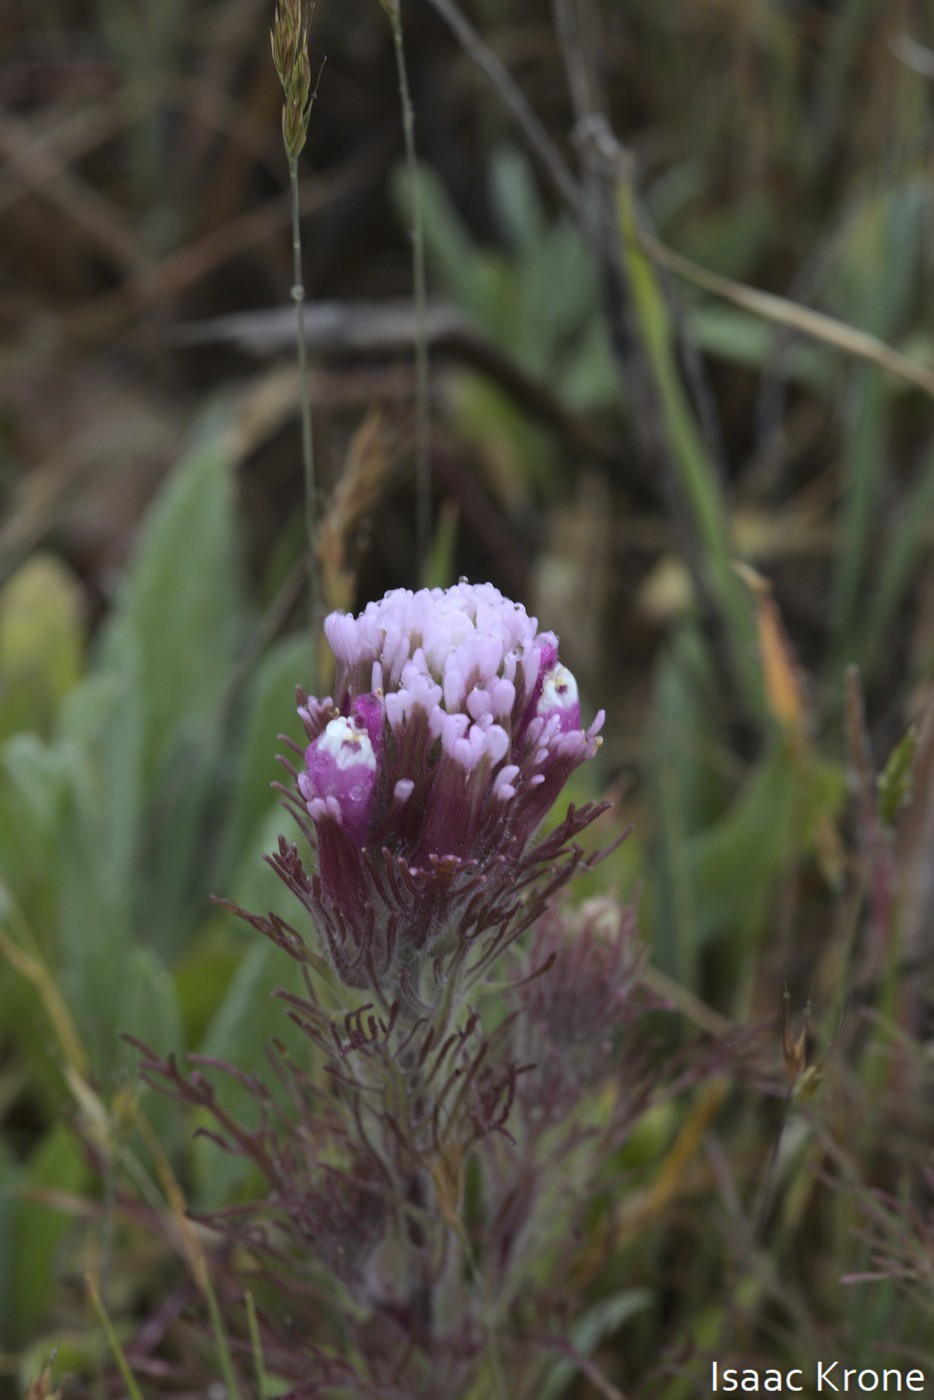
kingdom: Plantae
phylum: Tracheophyta
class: Magnoliopsida
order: Lamiales
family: Orobanchaceae
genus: Castilleja
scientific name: Castilleja exserta
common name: Purple owl-clover
